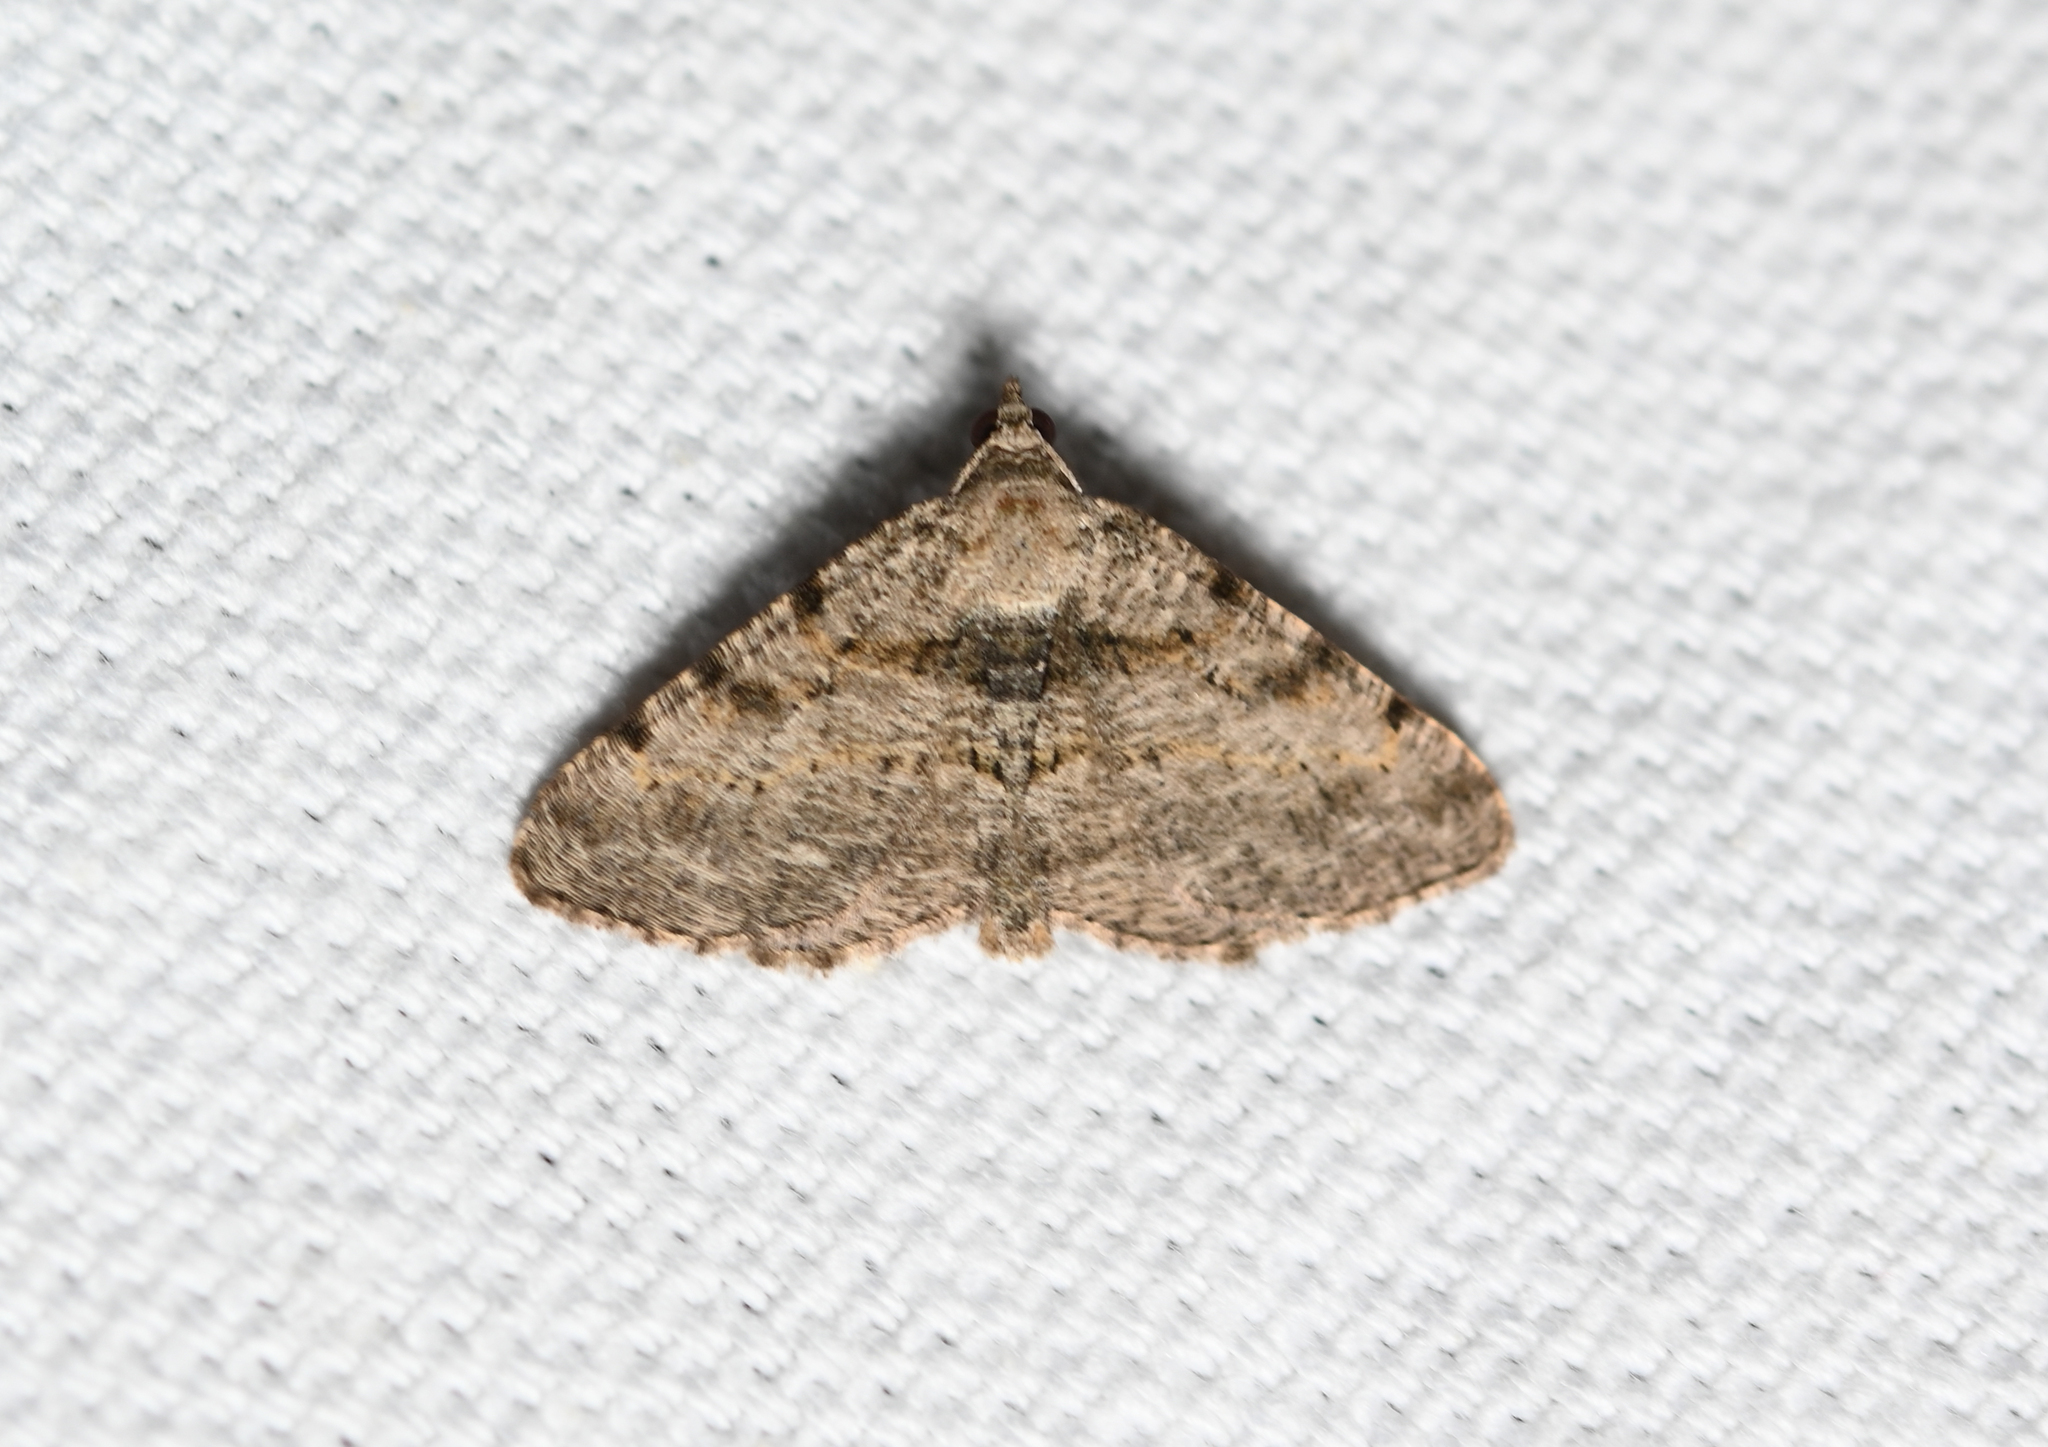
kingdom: Animalia
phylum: Arthropoda
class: Insecta
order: Lepidoptera
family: Geometridae
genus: Digrammia
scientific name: Digrammia gnophosaria
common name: Hollow-spotted angle
